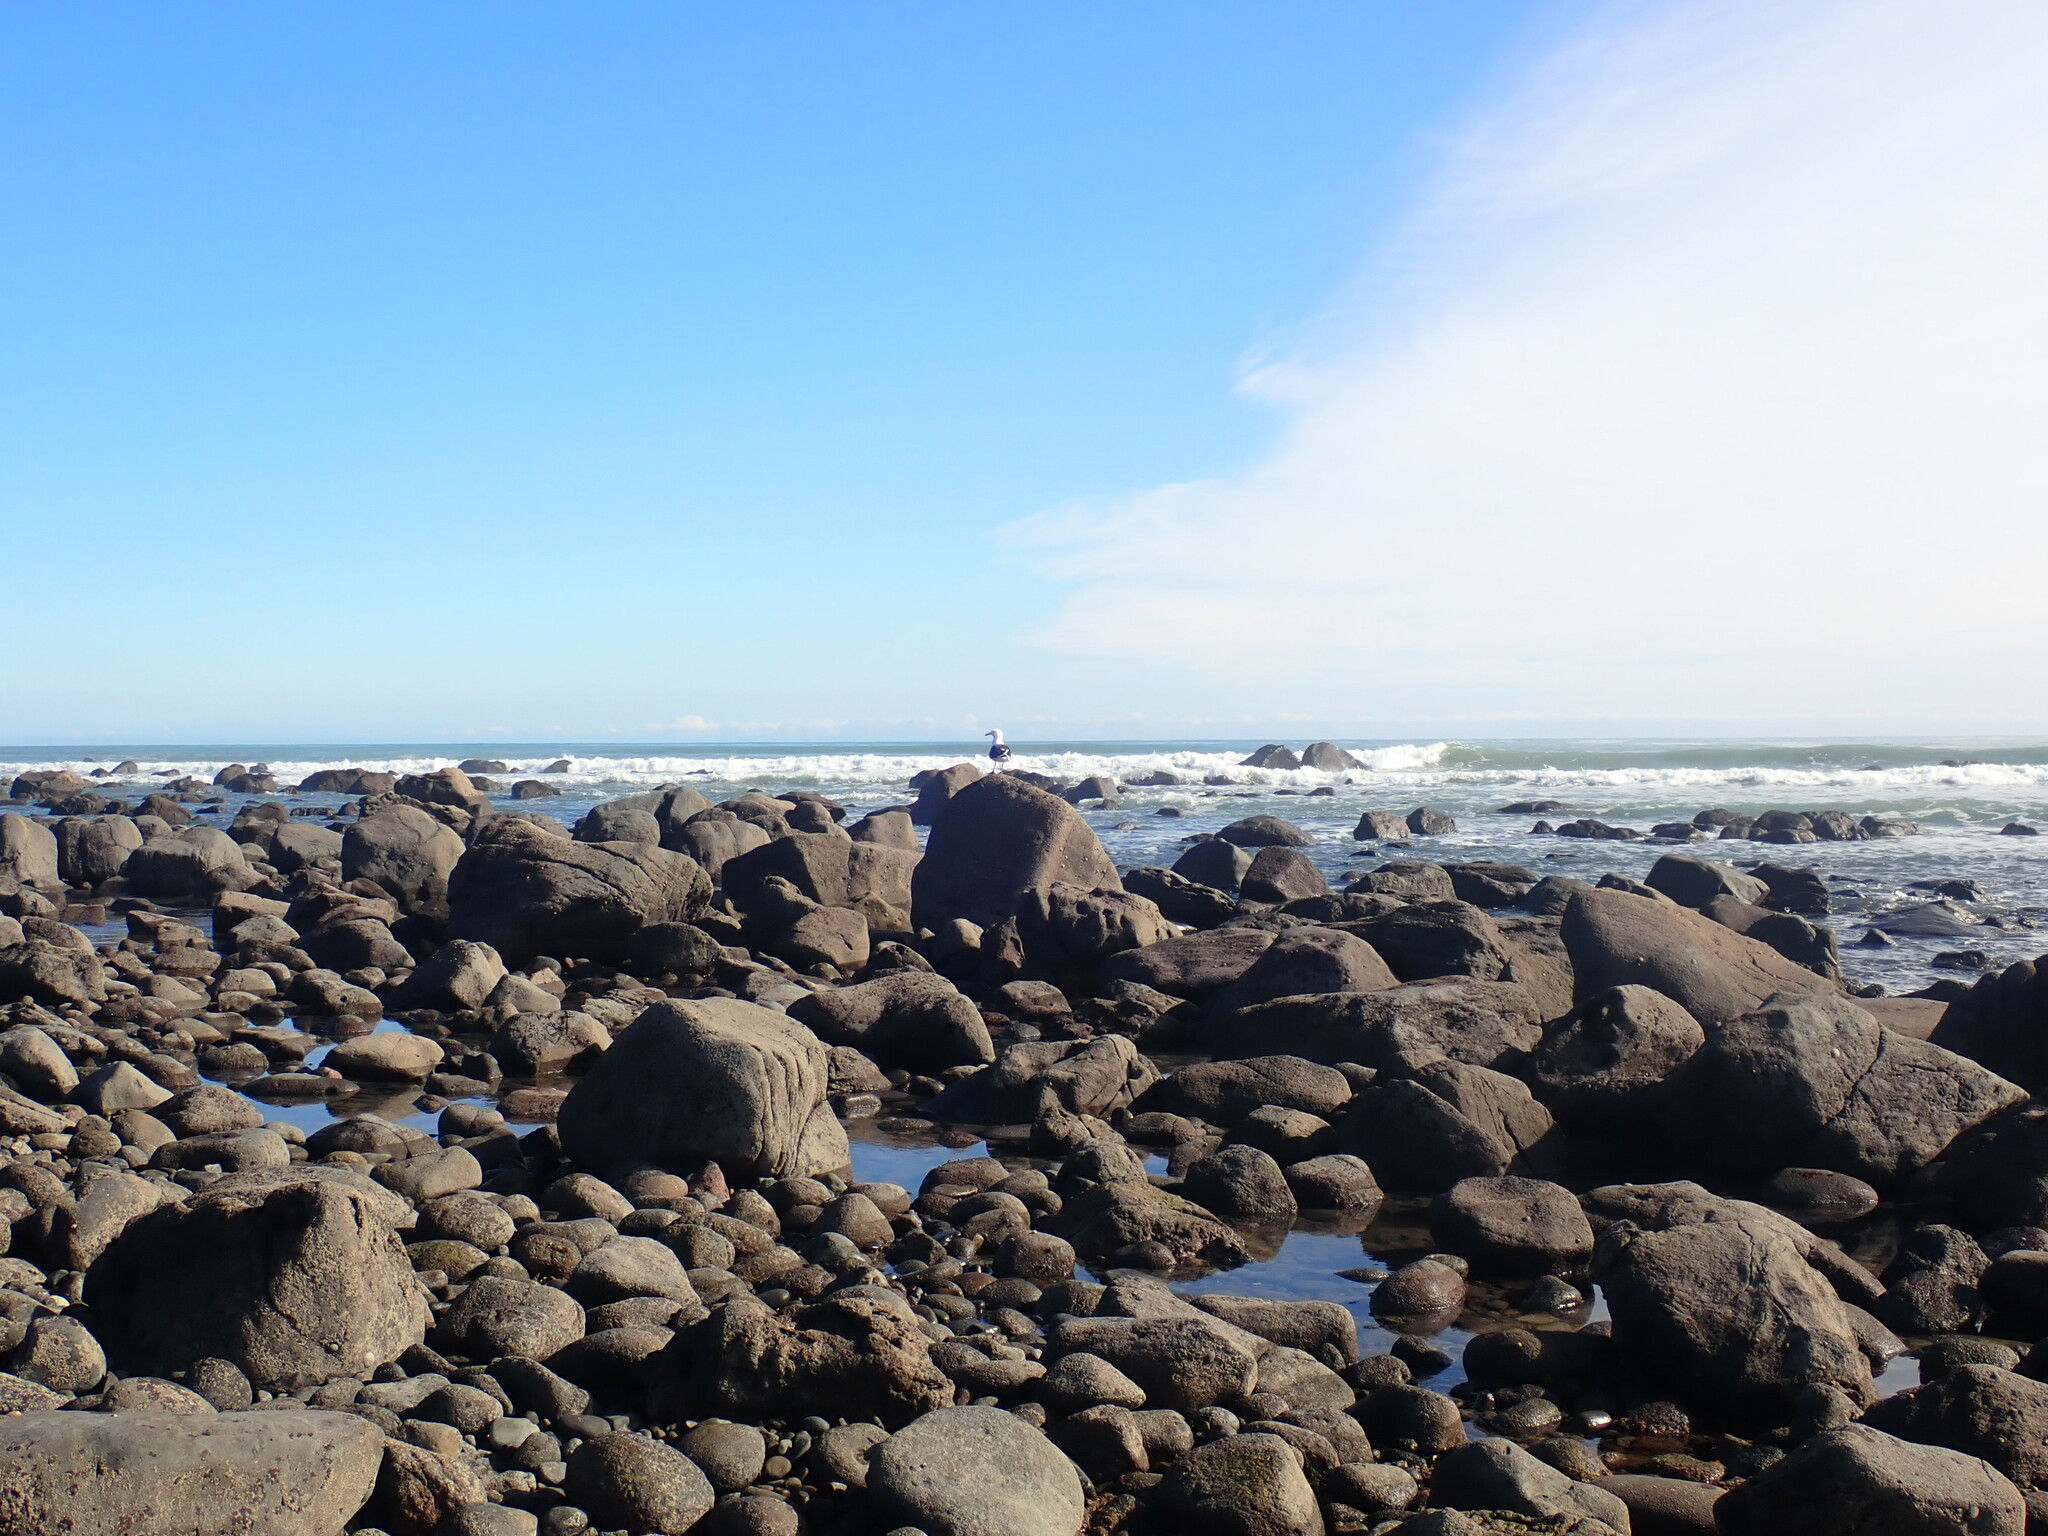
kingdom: Animalia
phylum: Chordata
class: Aves
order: Charadriiformes
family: Laridae
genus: Larus
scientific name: Larus dominicanus
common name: Kelp gull
